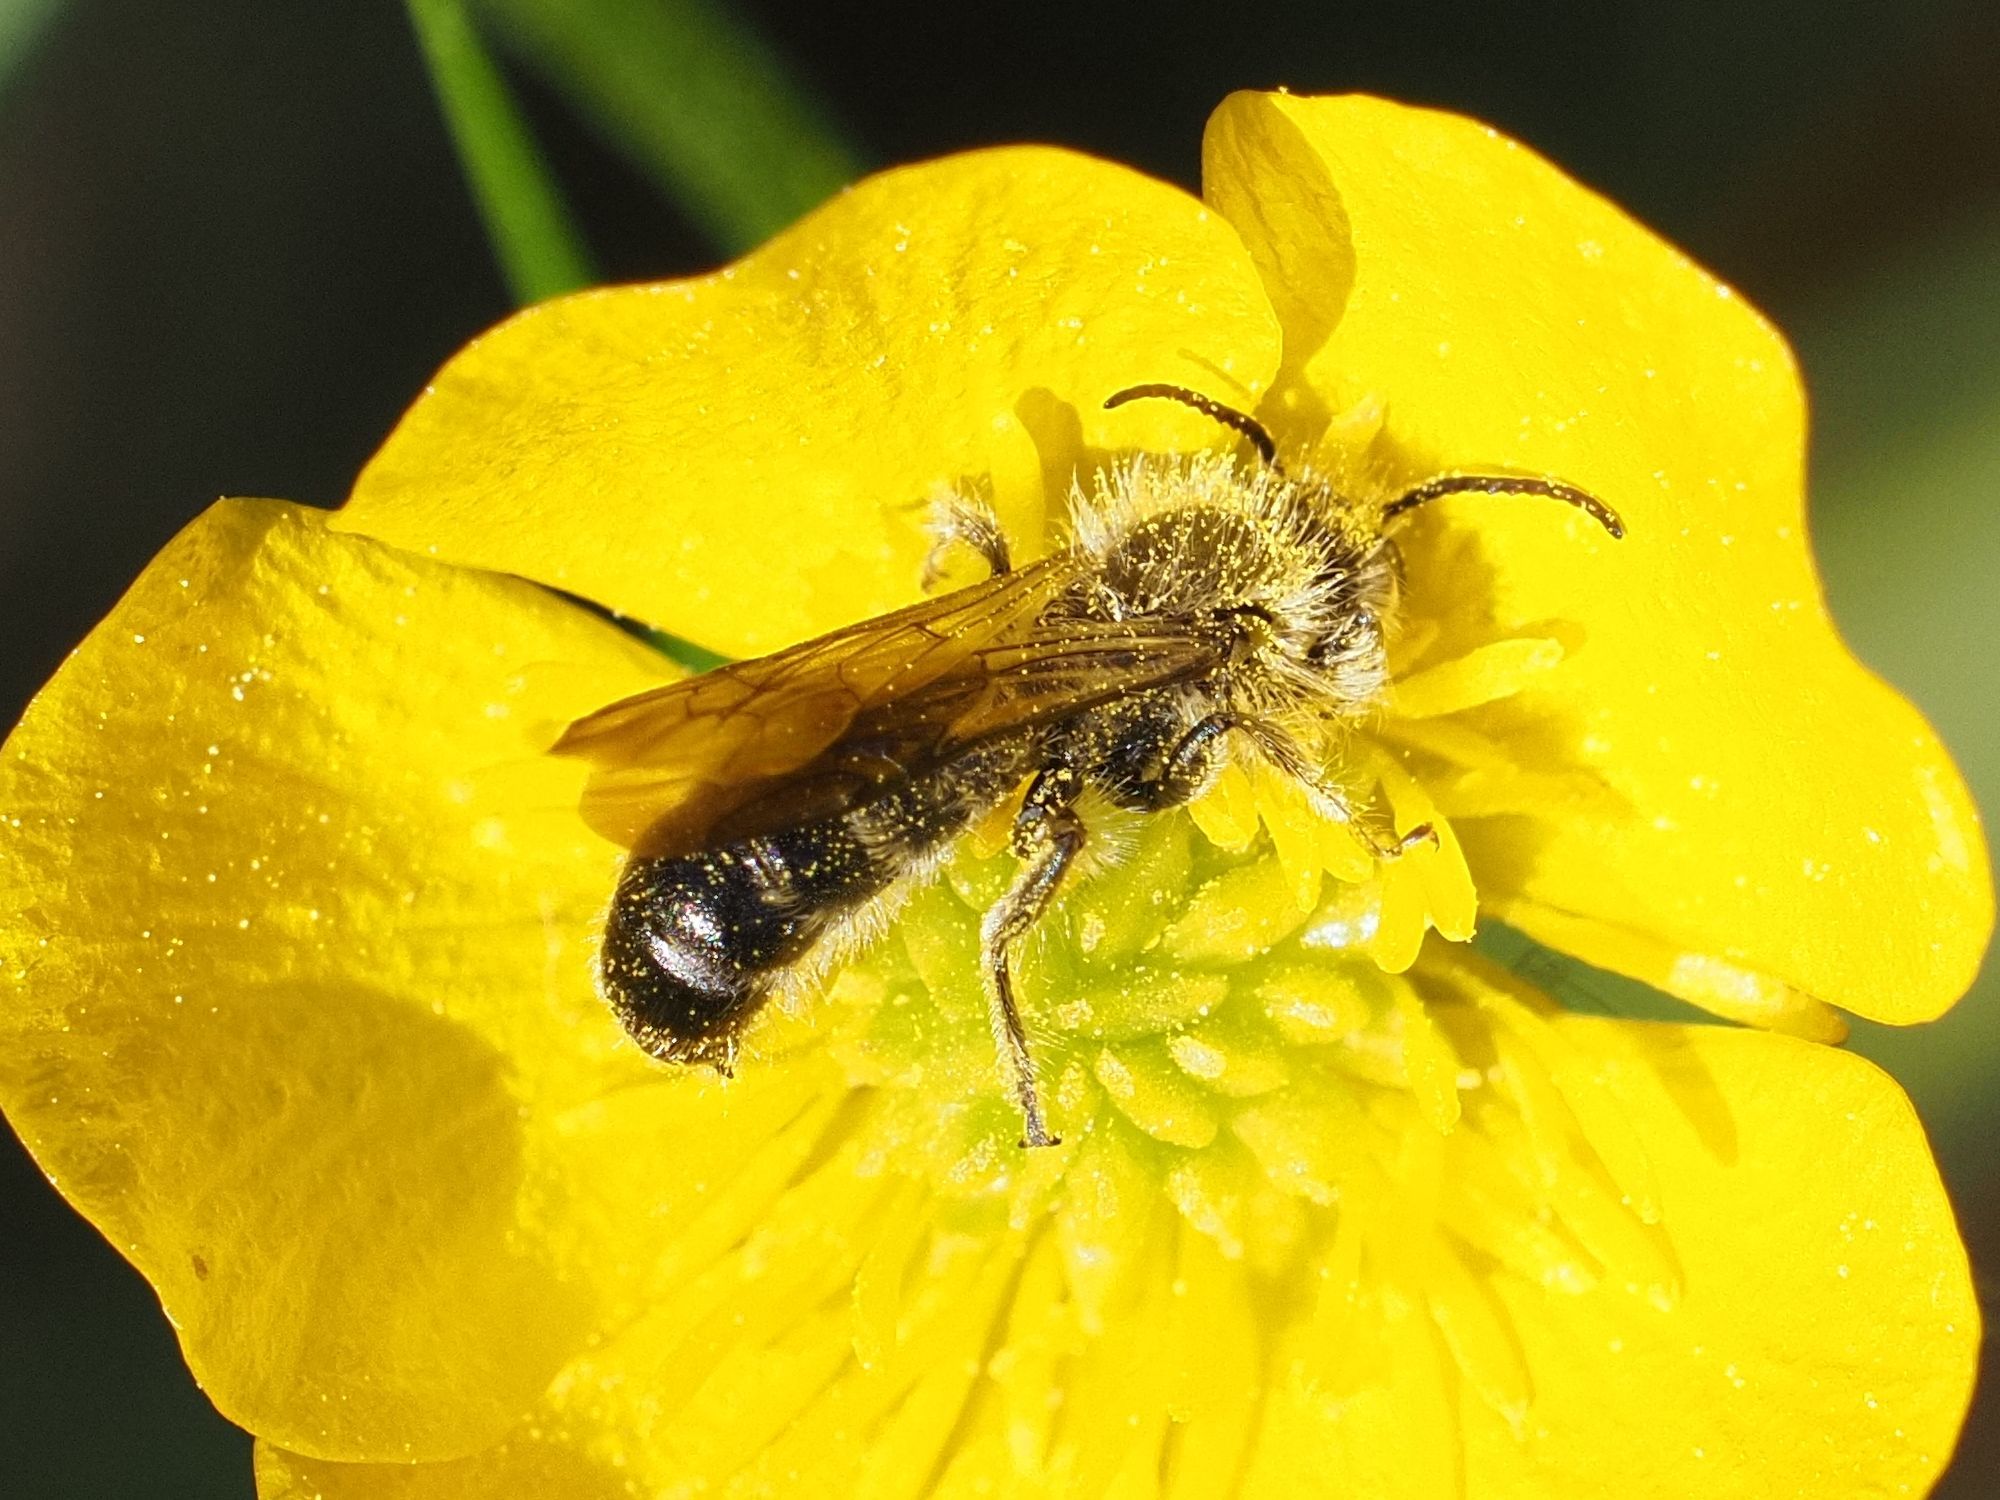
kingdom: Animalia
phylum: Arthropoda
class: Insecta
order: Hymenoptera
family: Megachilidae
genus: Chelostoma
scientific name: Chelostoma florisomne
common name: Sleepy carpenter bee
